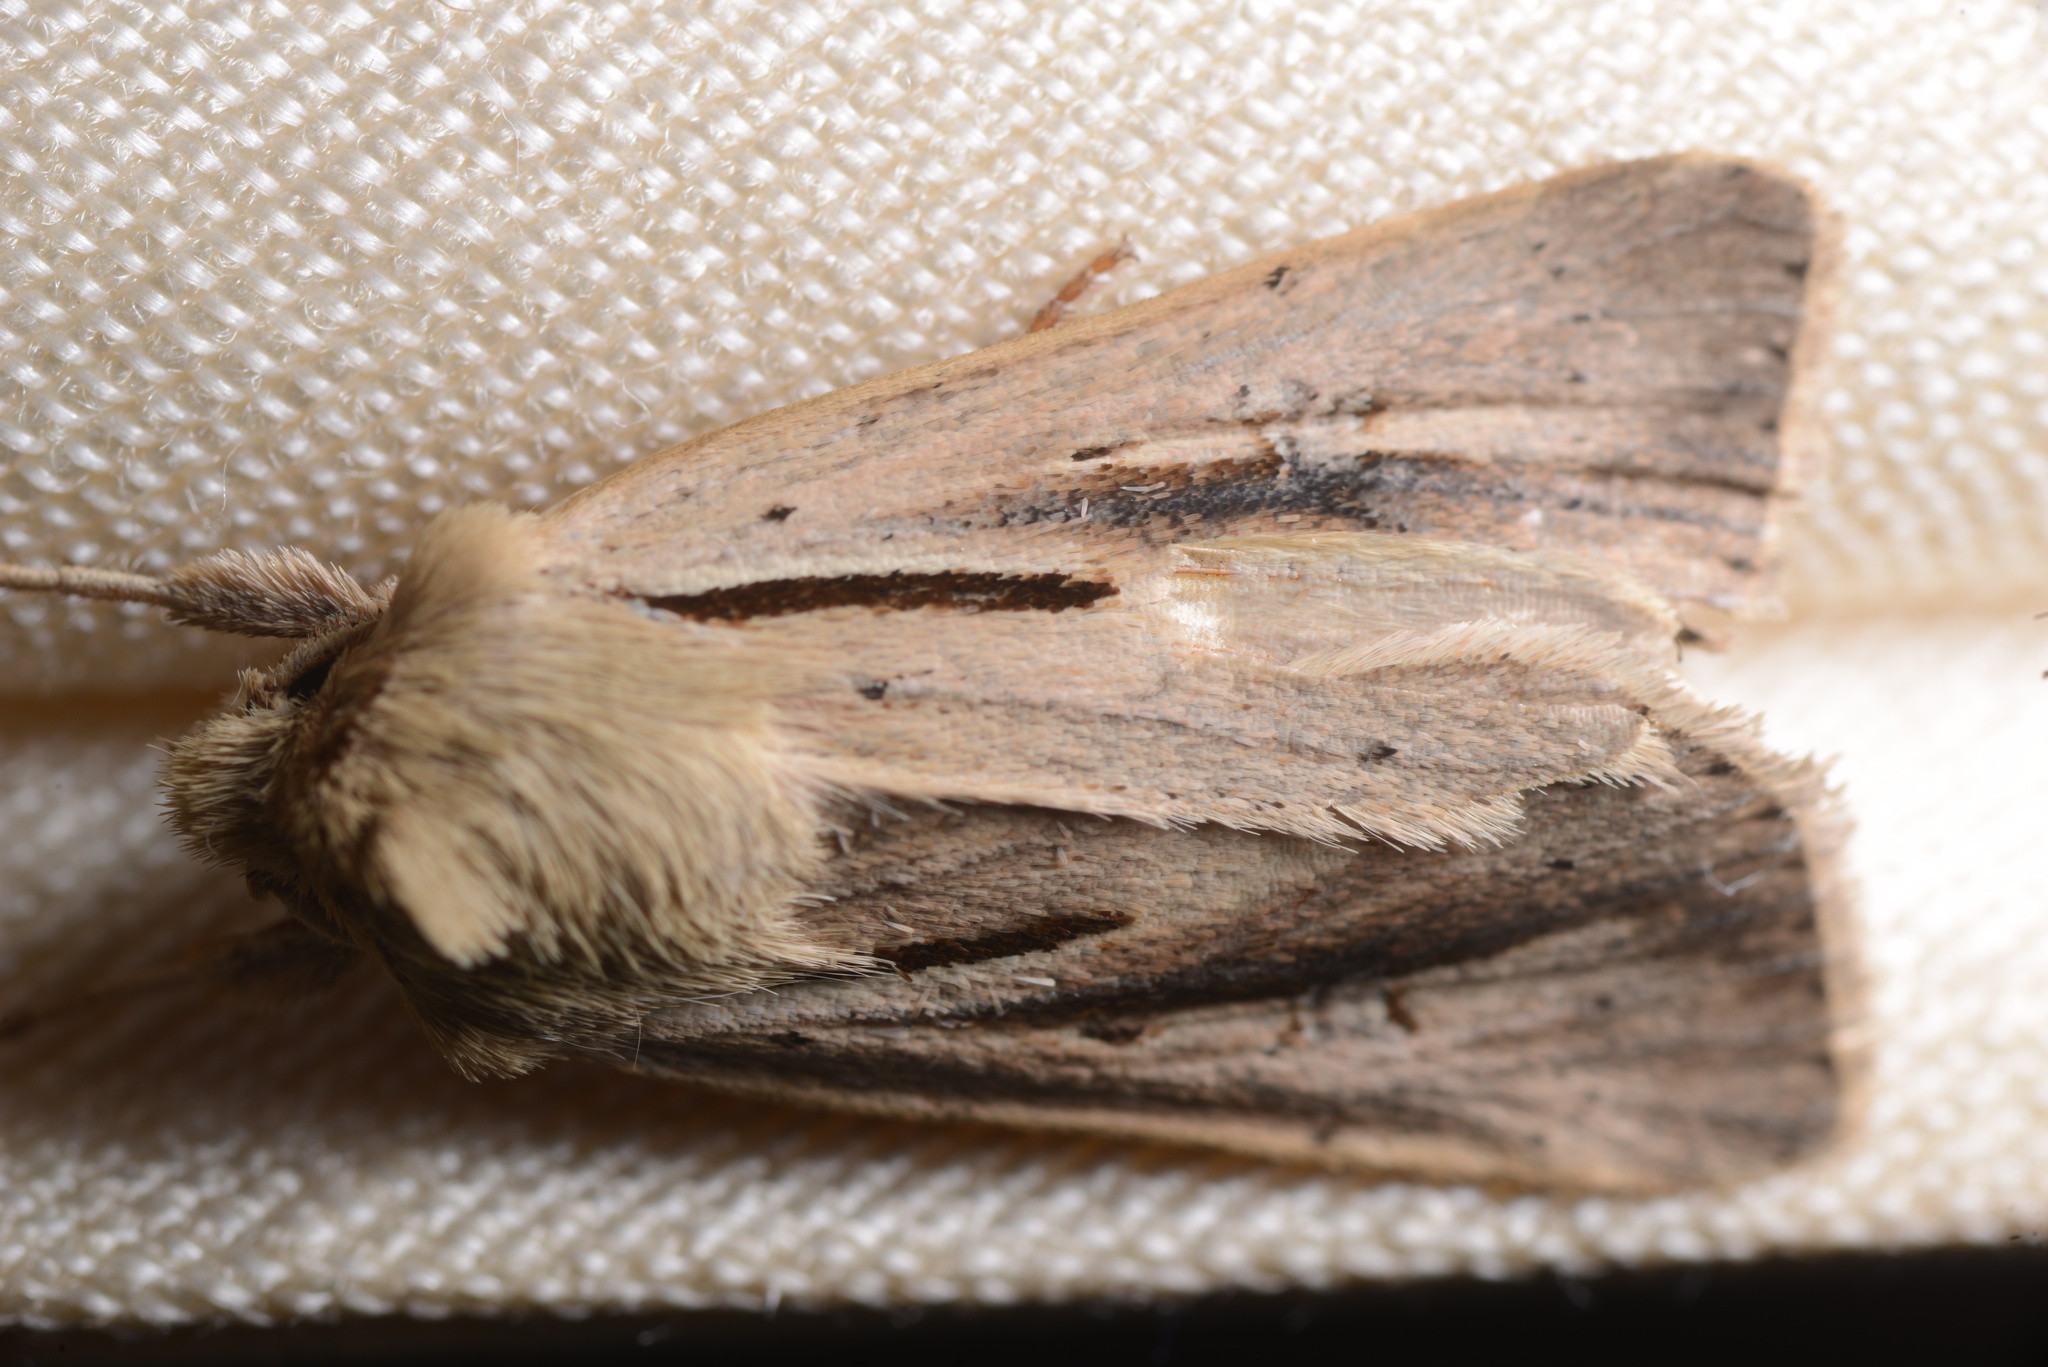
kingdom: Animalia
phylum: Arthropoda
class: Insecta
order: Lepidoptera
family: Noctuidae
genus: Ichneutica
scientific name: Ichneutica propria
